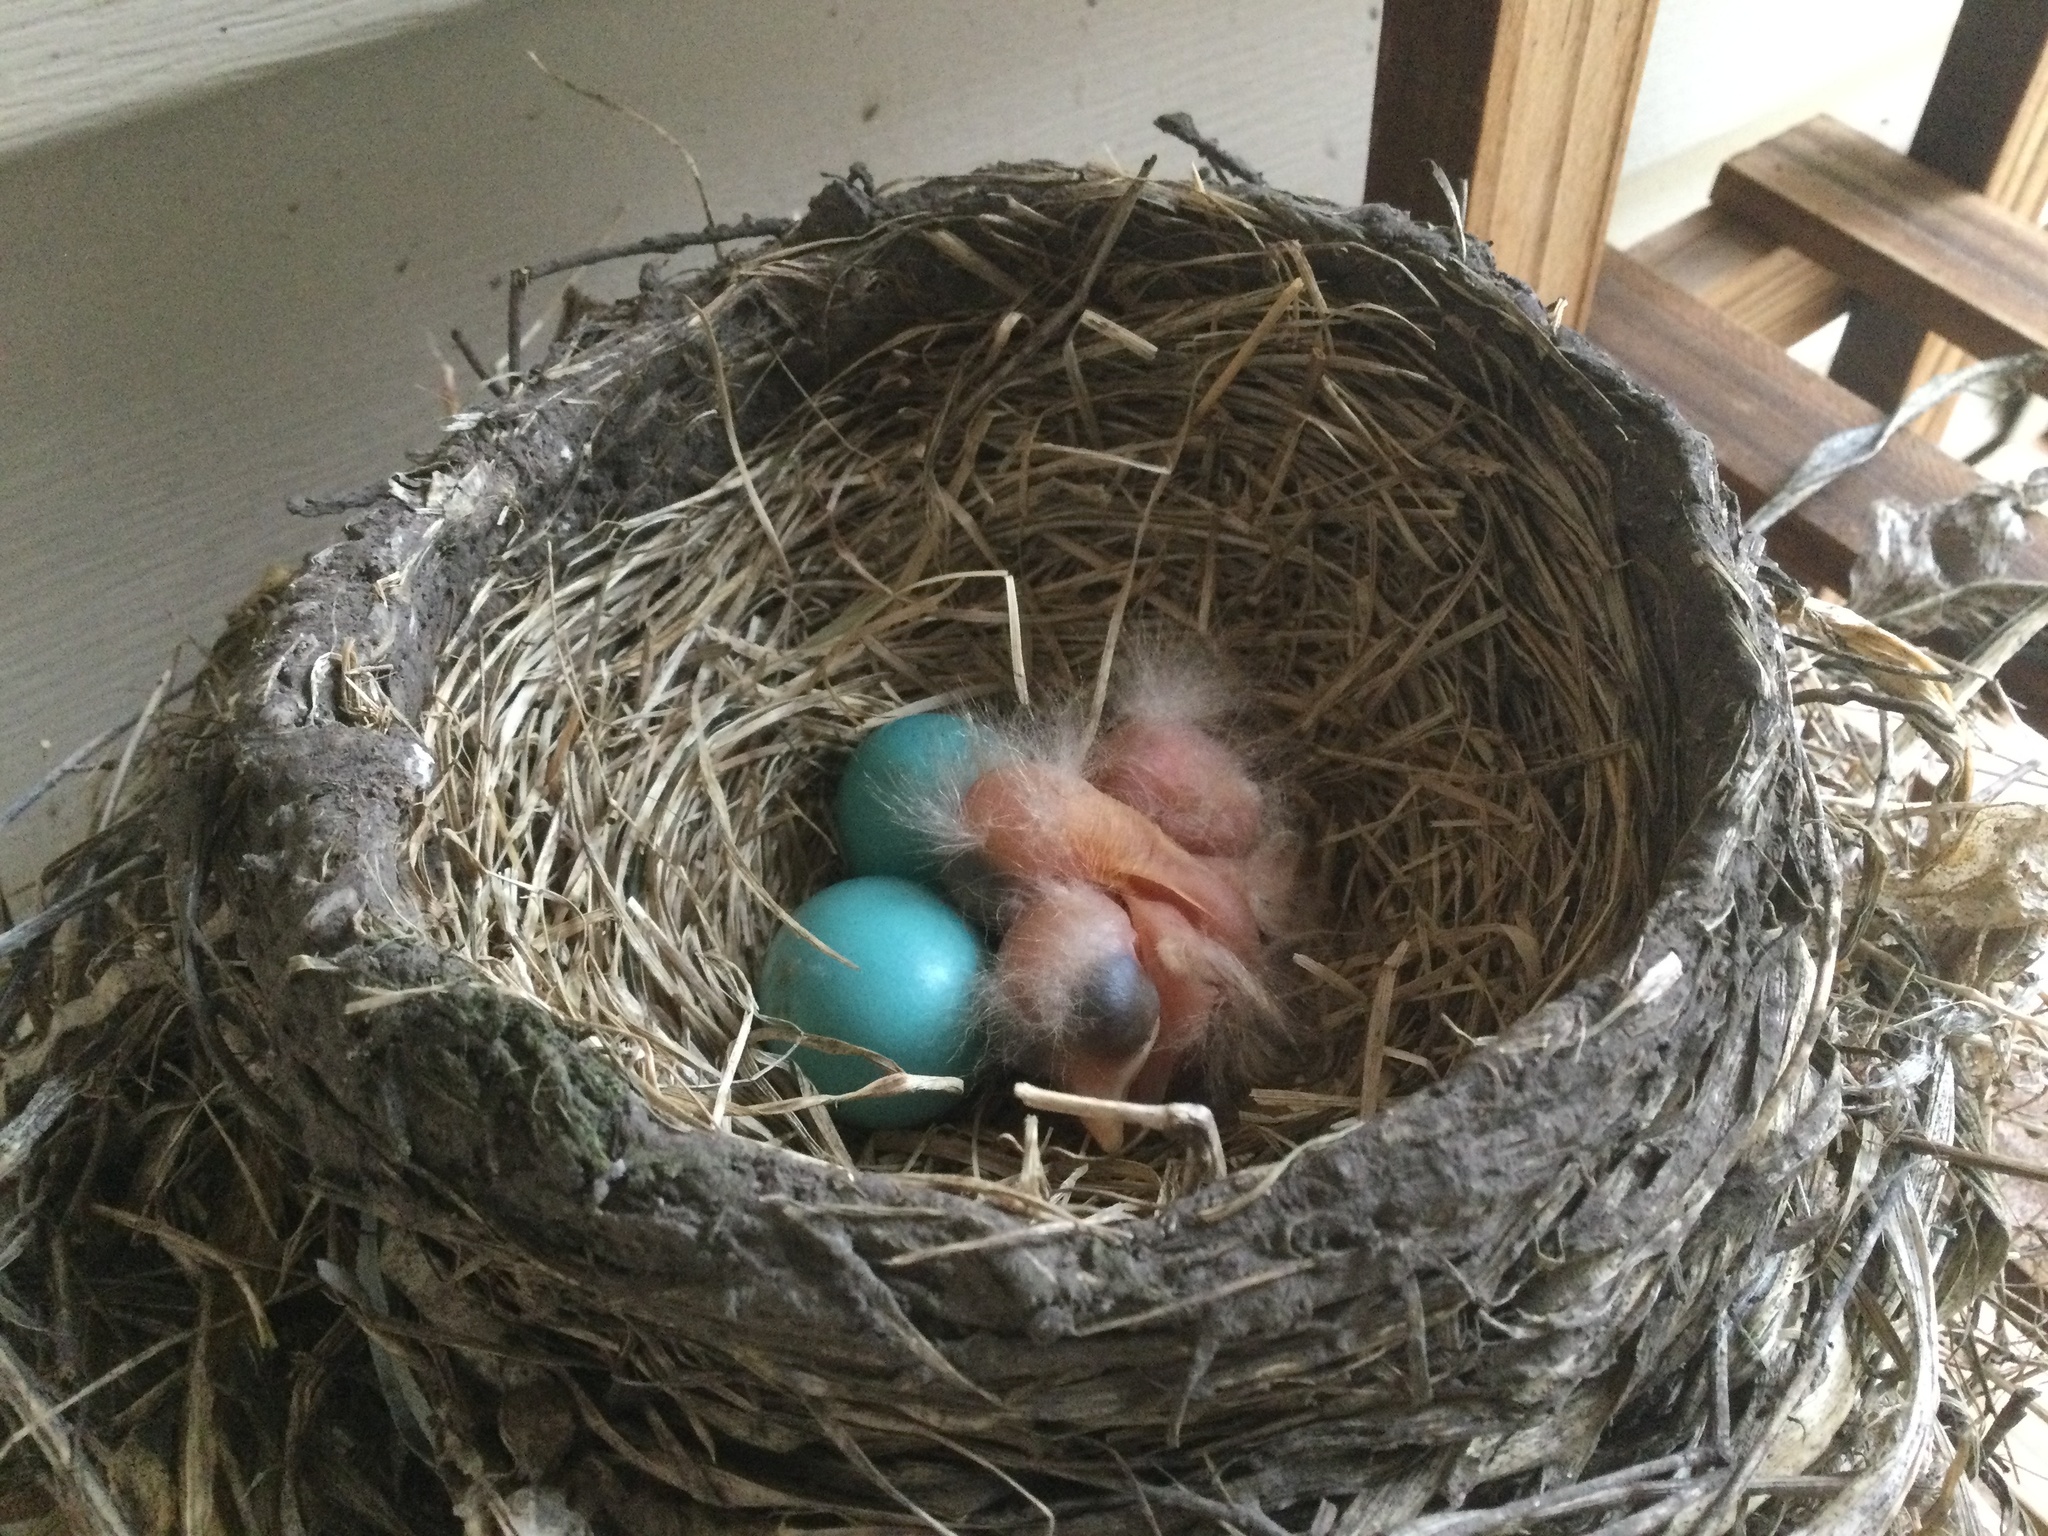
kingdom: Animalia
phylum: Chordata
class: Aves
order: Passeriformes
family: Turdidae
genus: Turdus
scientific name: Turdus migratorius
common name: American robin
